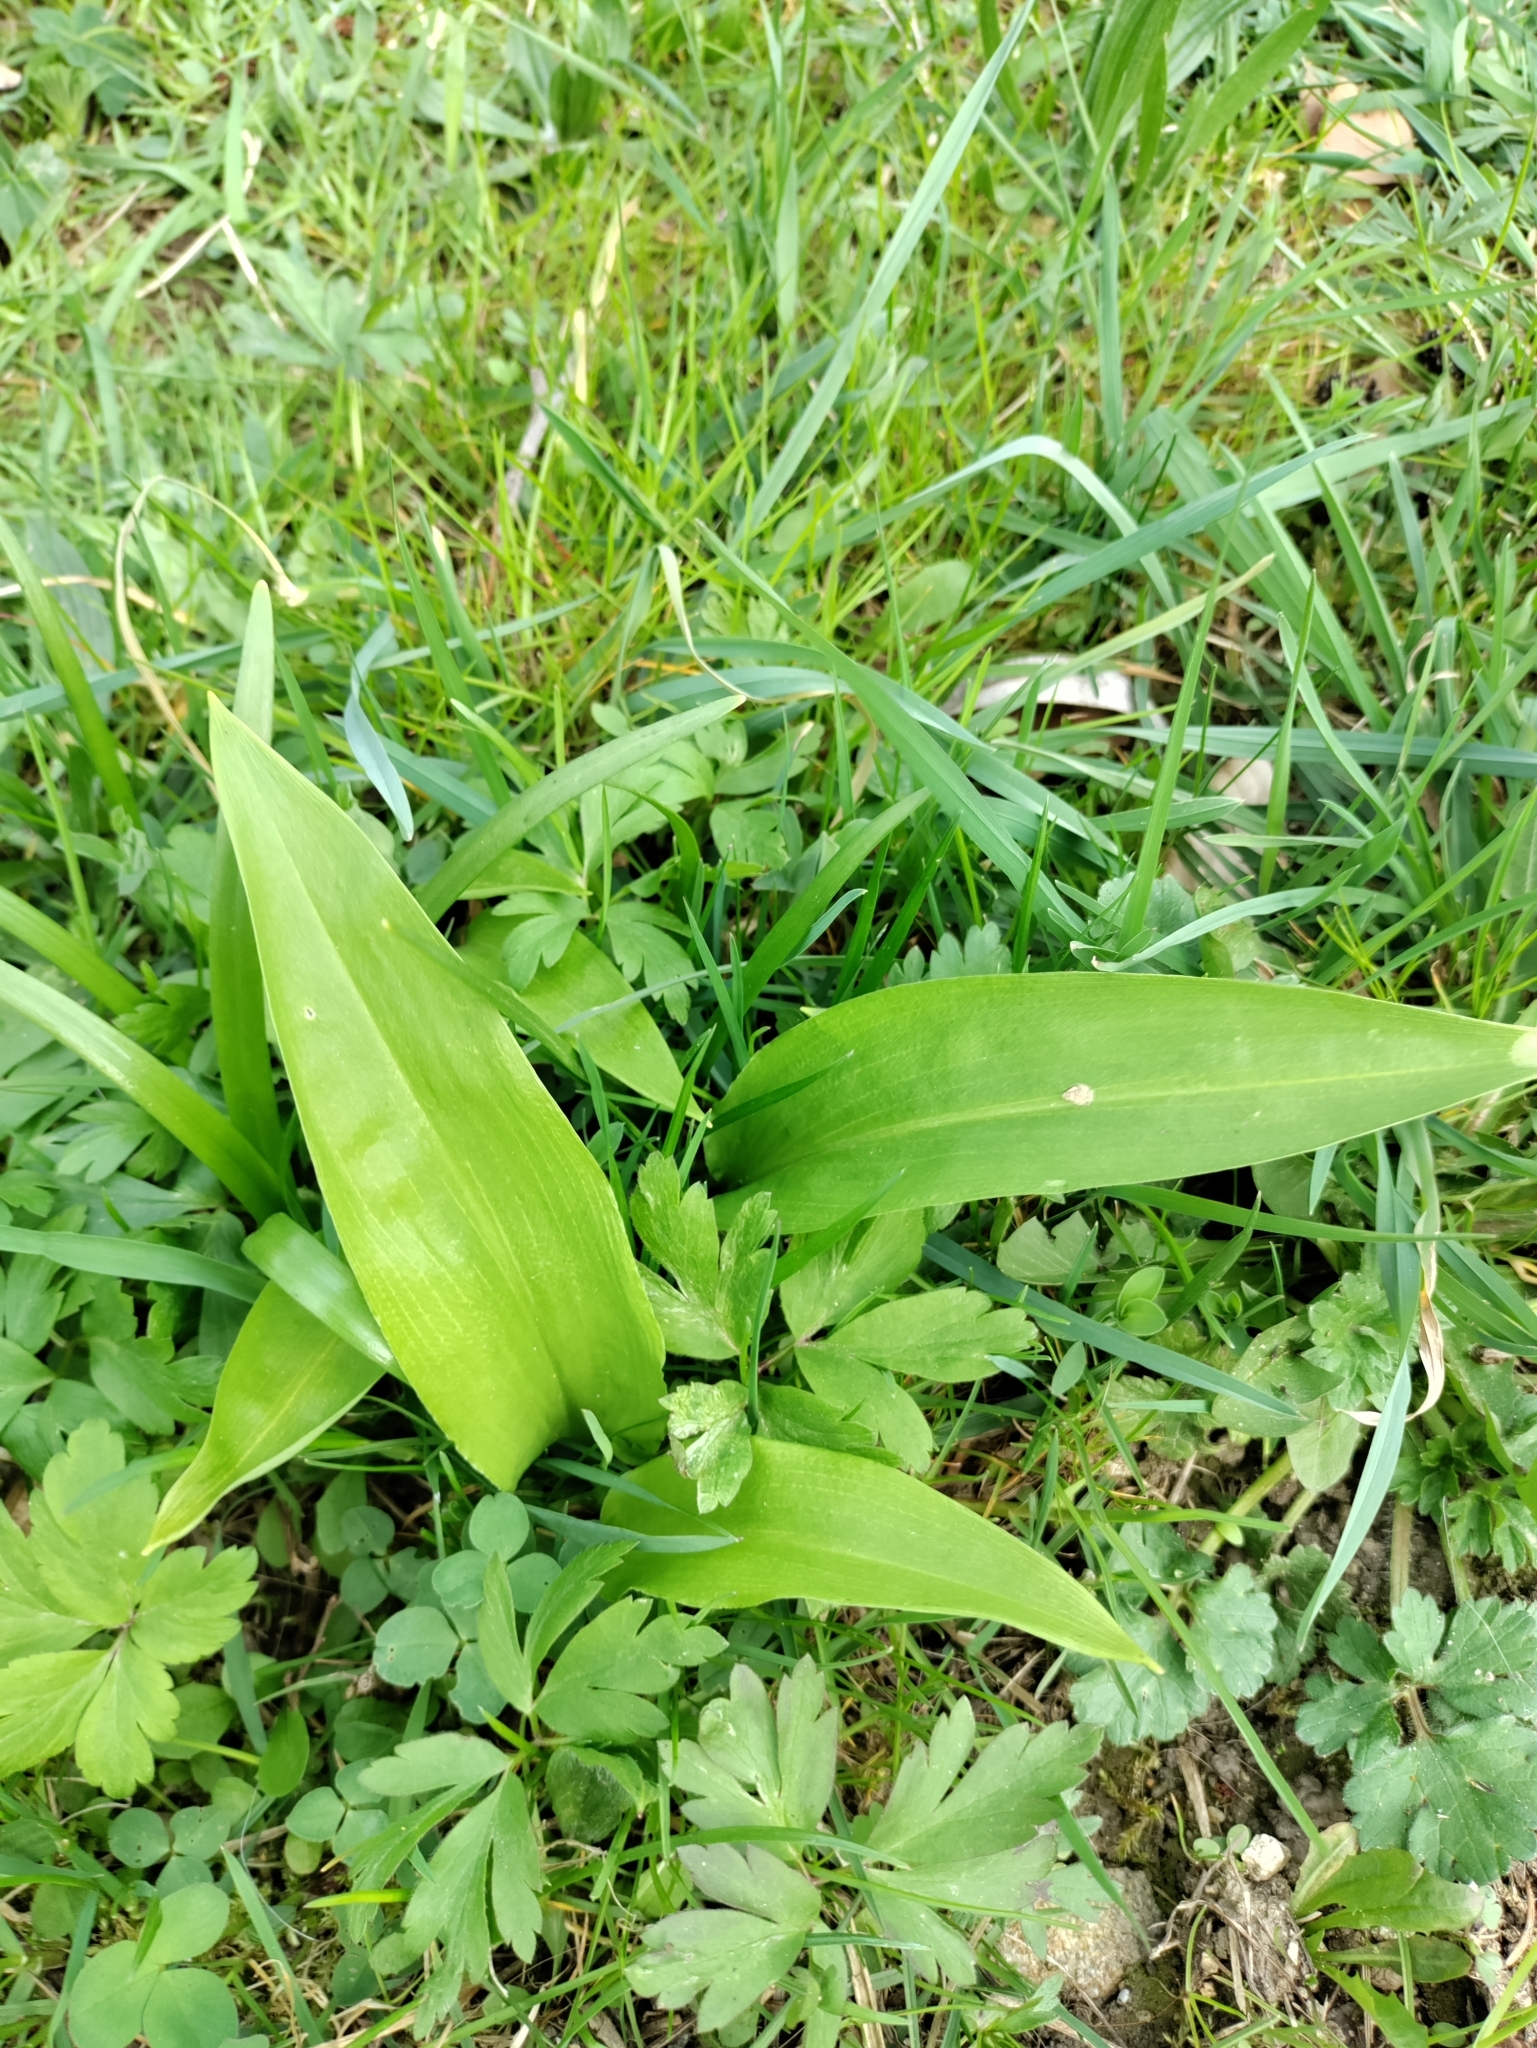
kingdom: Plantae
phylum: Tracheophyta
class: Liliopsida
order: Asparagales
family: Amaryllidaceae
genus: Allium
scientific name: Allium ursinum
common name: Ramsons
